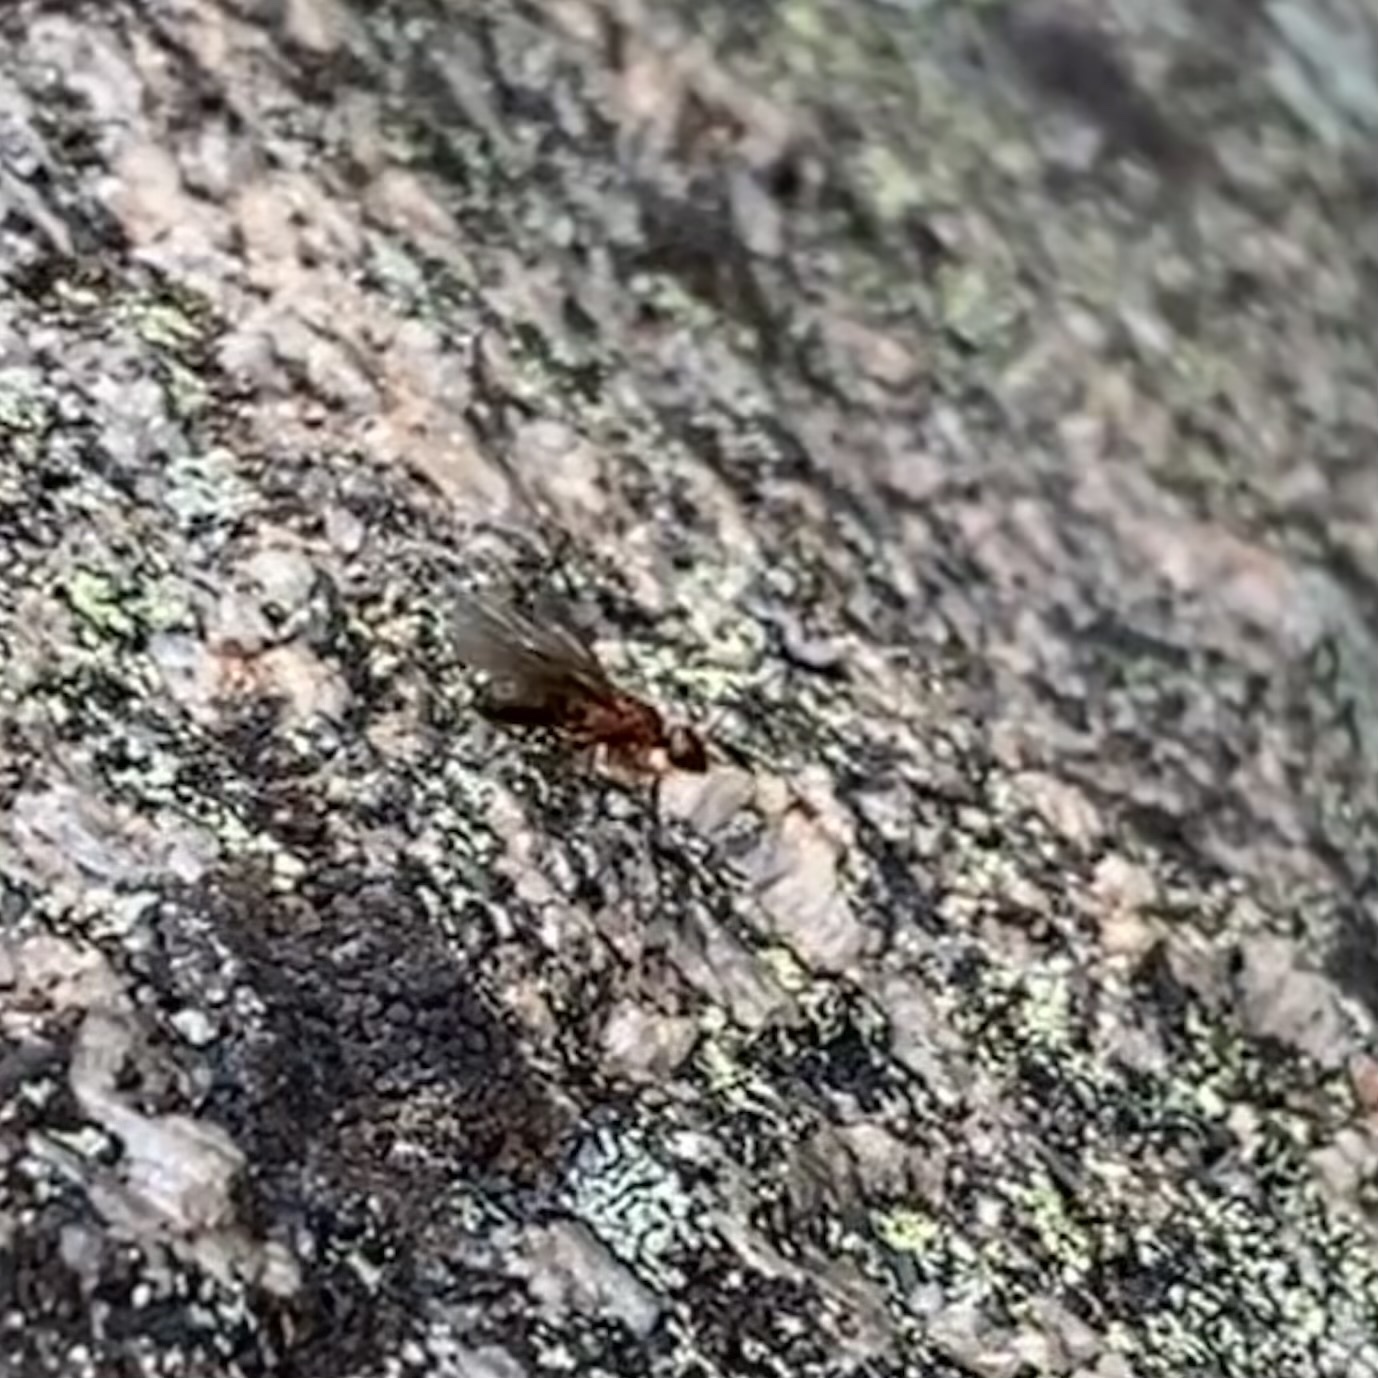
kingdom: Animalia
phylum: Arthropoda
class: Insecta
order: Hymenoptera
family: Formicidae
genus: Camponotus
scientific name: Camponotus
